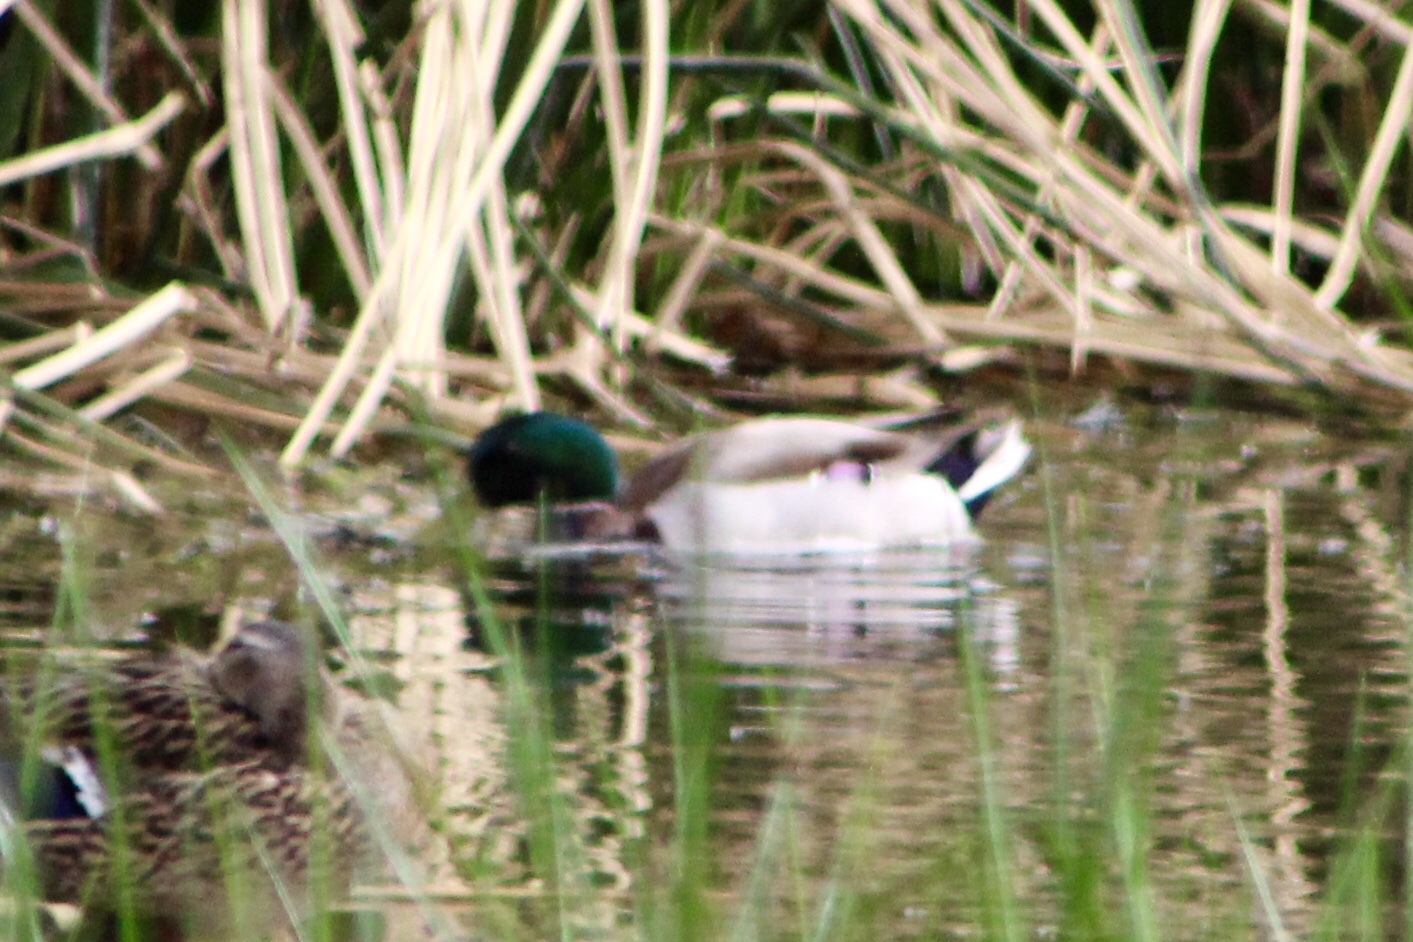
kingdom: Animalia
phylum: Chordata
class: Aves
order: Anseriformes
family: Anatidae
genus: Anas
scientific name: Anas platyrhynchos
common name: Mallard
